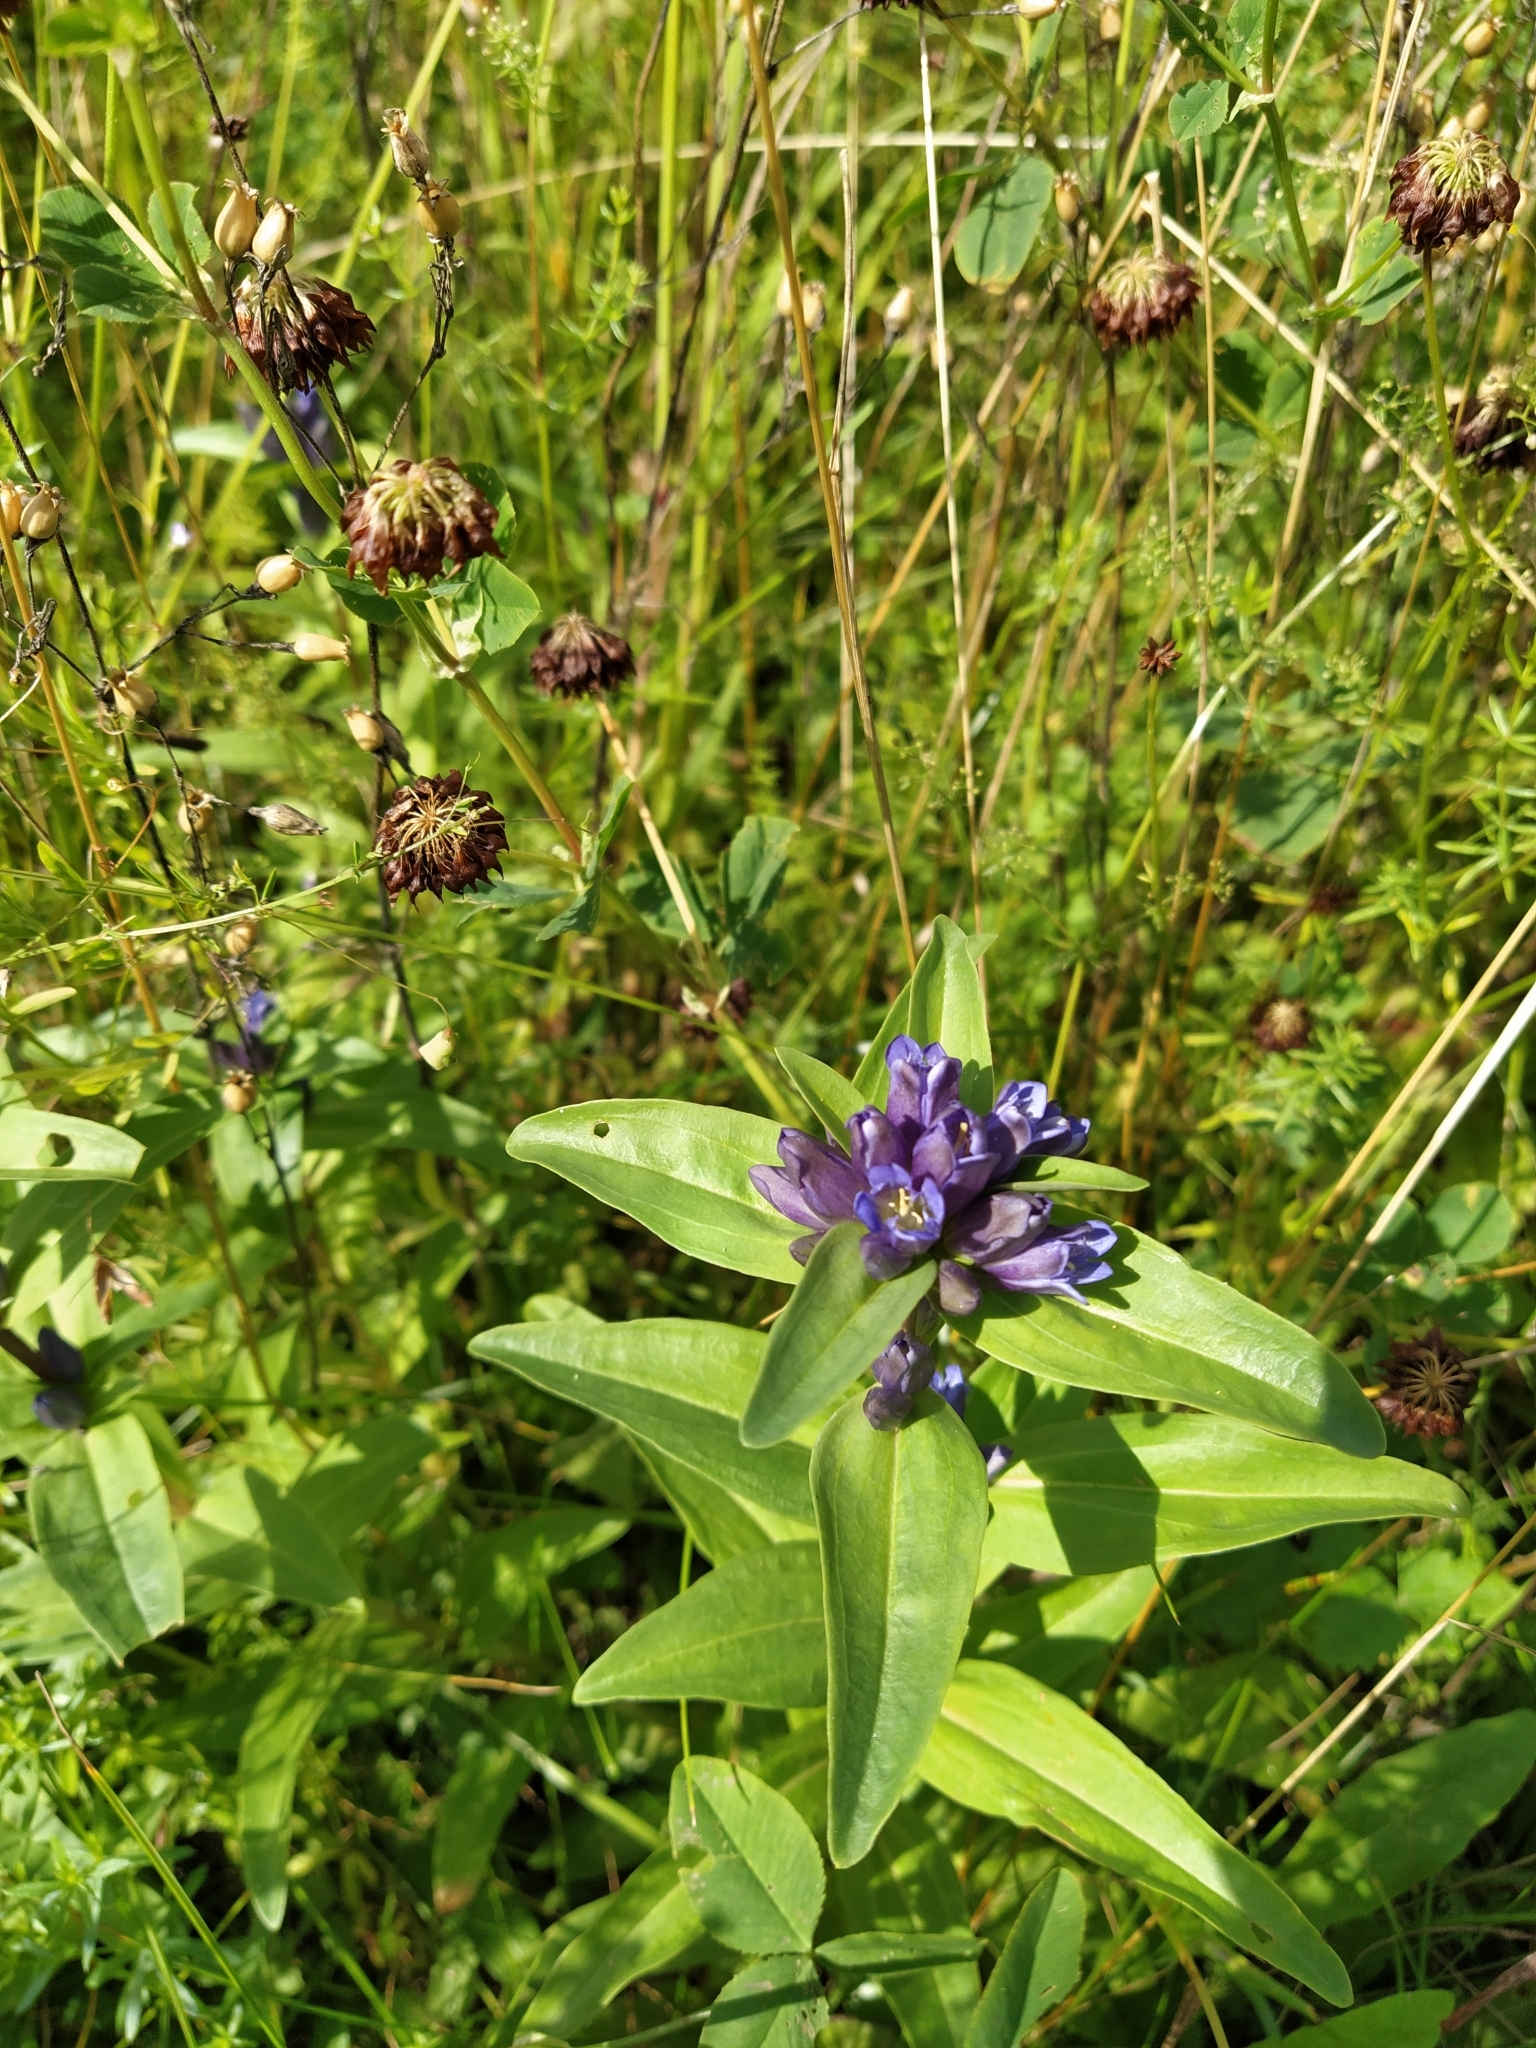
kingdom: Plantae
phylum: Tracheophyta
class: Magnoliopsida
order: Gentianales
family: Gentianaceae
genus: Gentiana
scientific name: Gentiana cruciata
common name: Cross gentian
